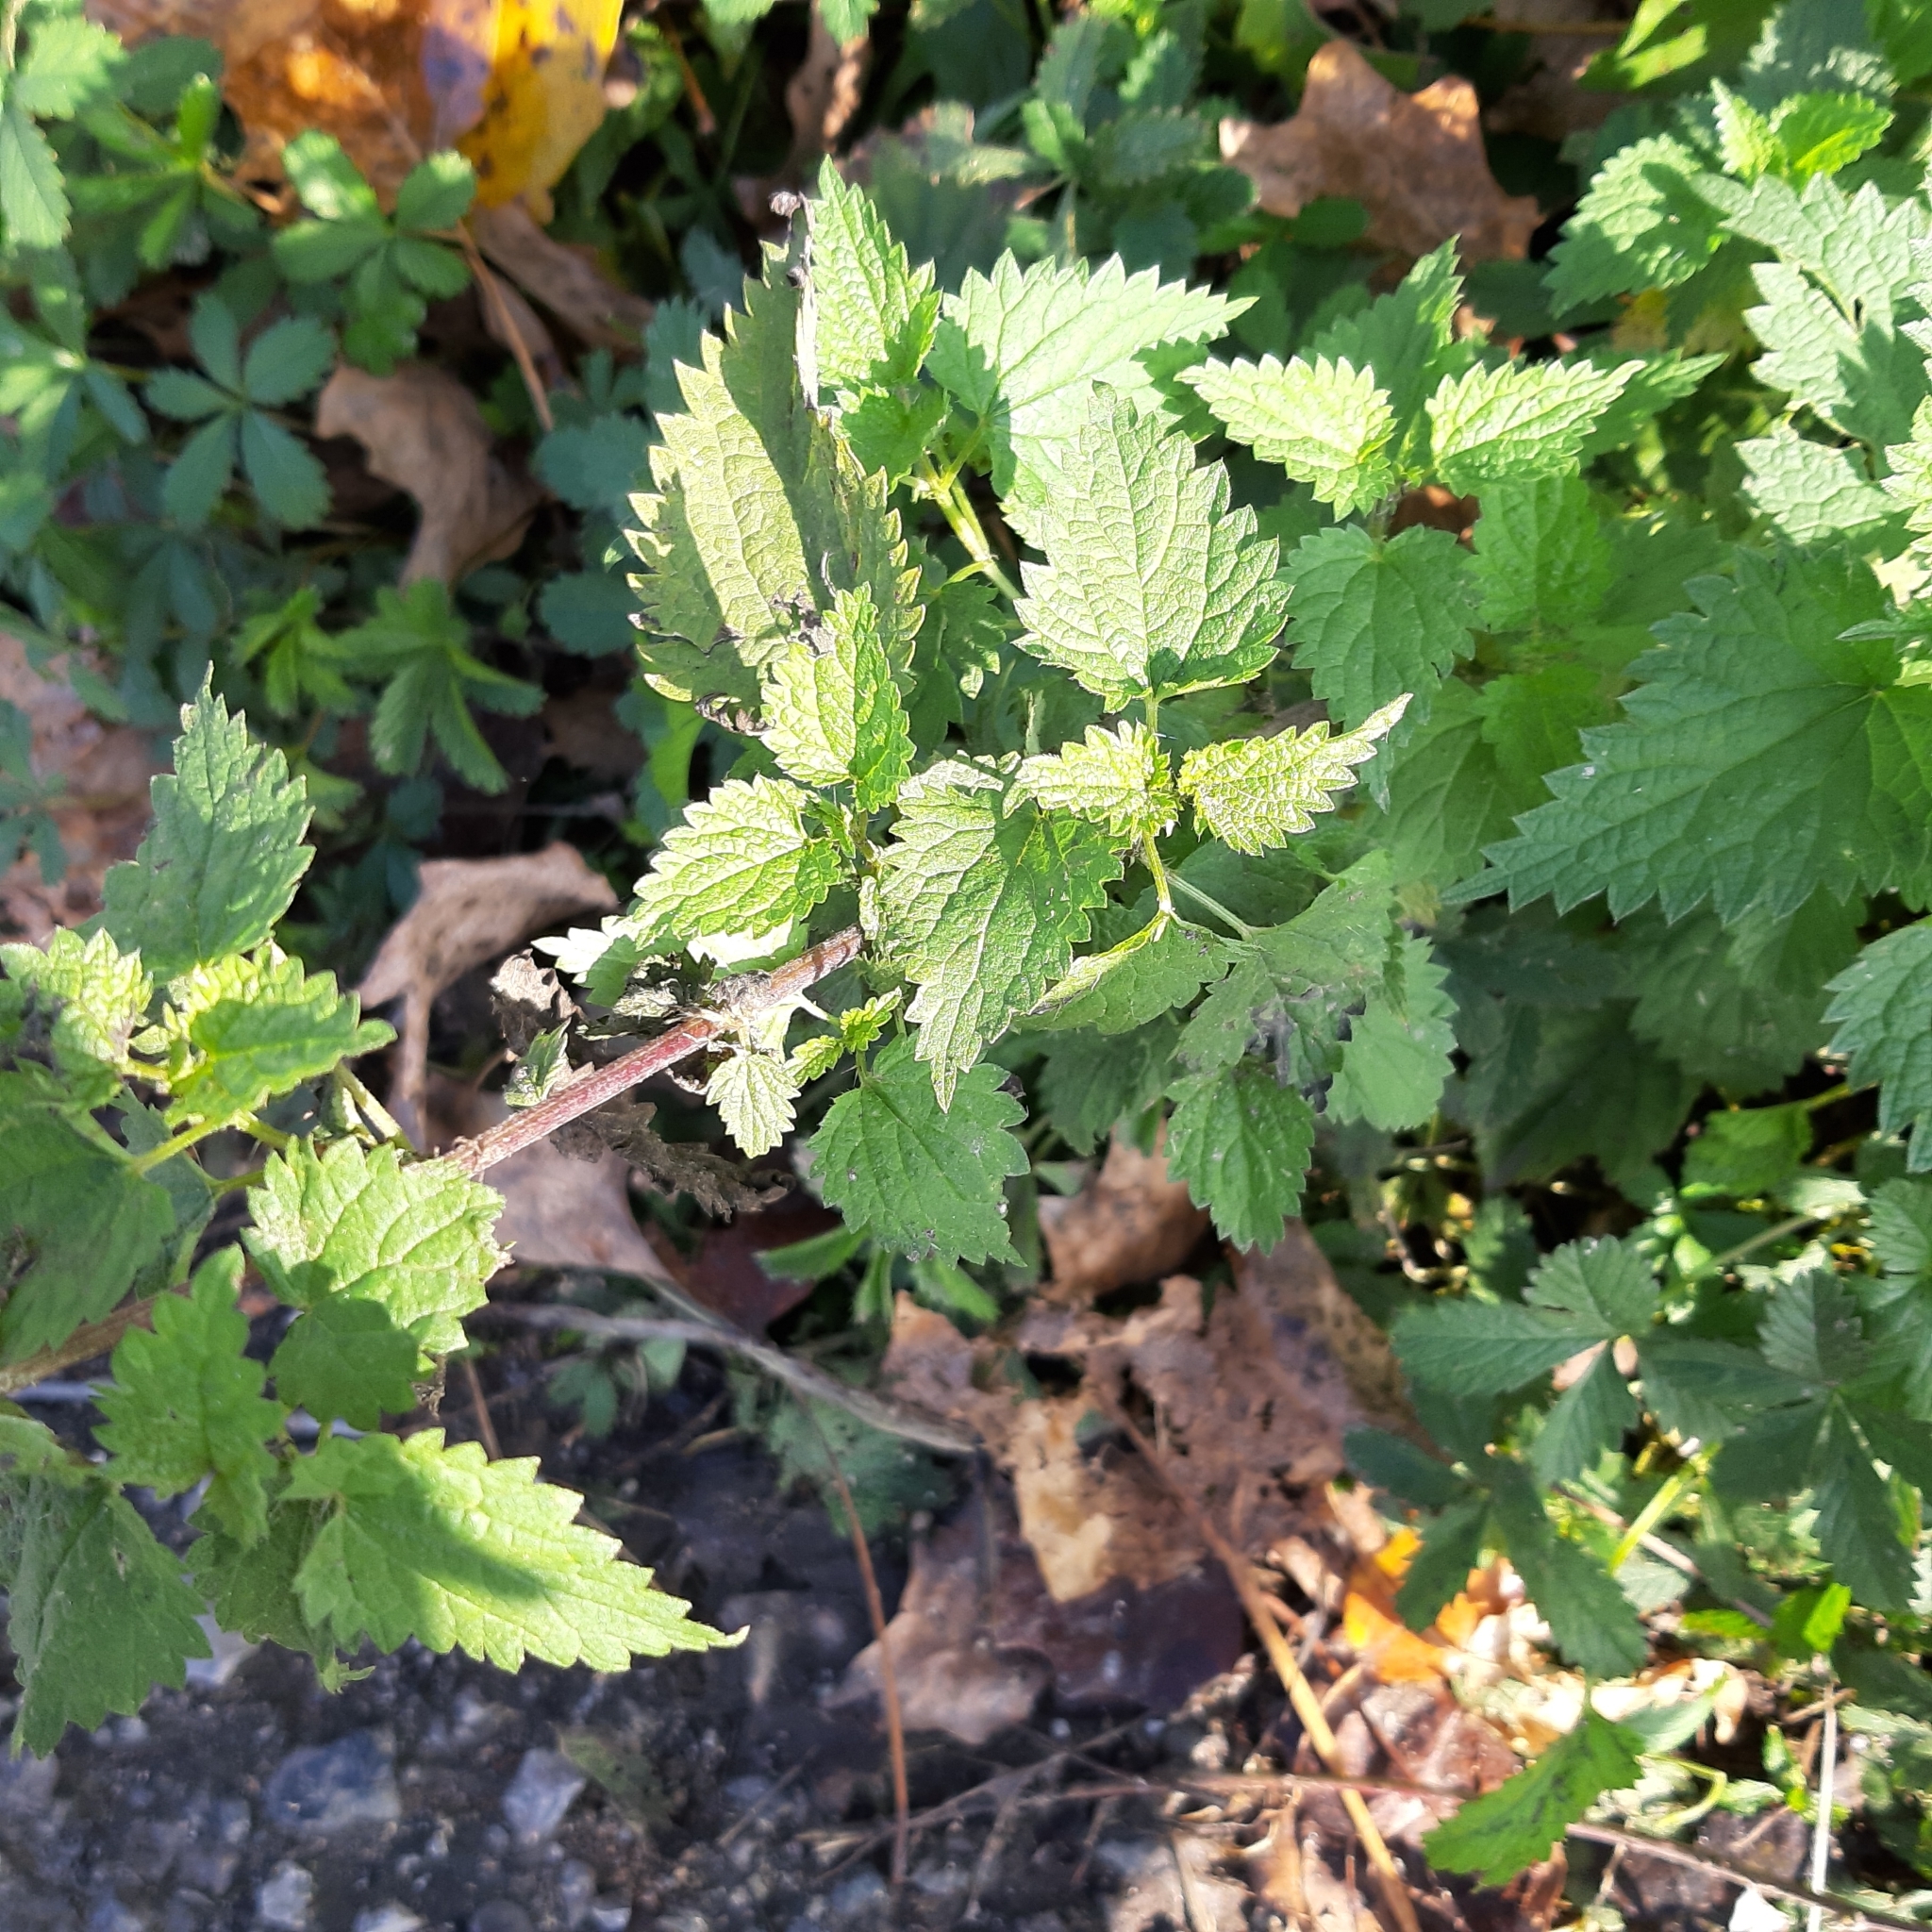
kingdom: Plantae
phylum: Tracheophyta
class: Magnoliopsida
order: Rosales
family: Urticaceae
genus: Urtica
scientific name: Urtica dioica
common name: Common nettle
